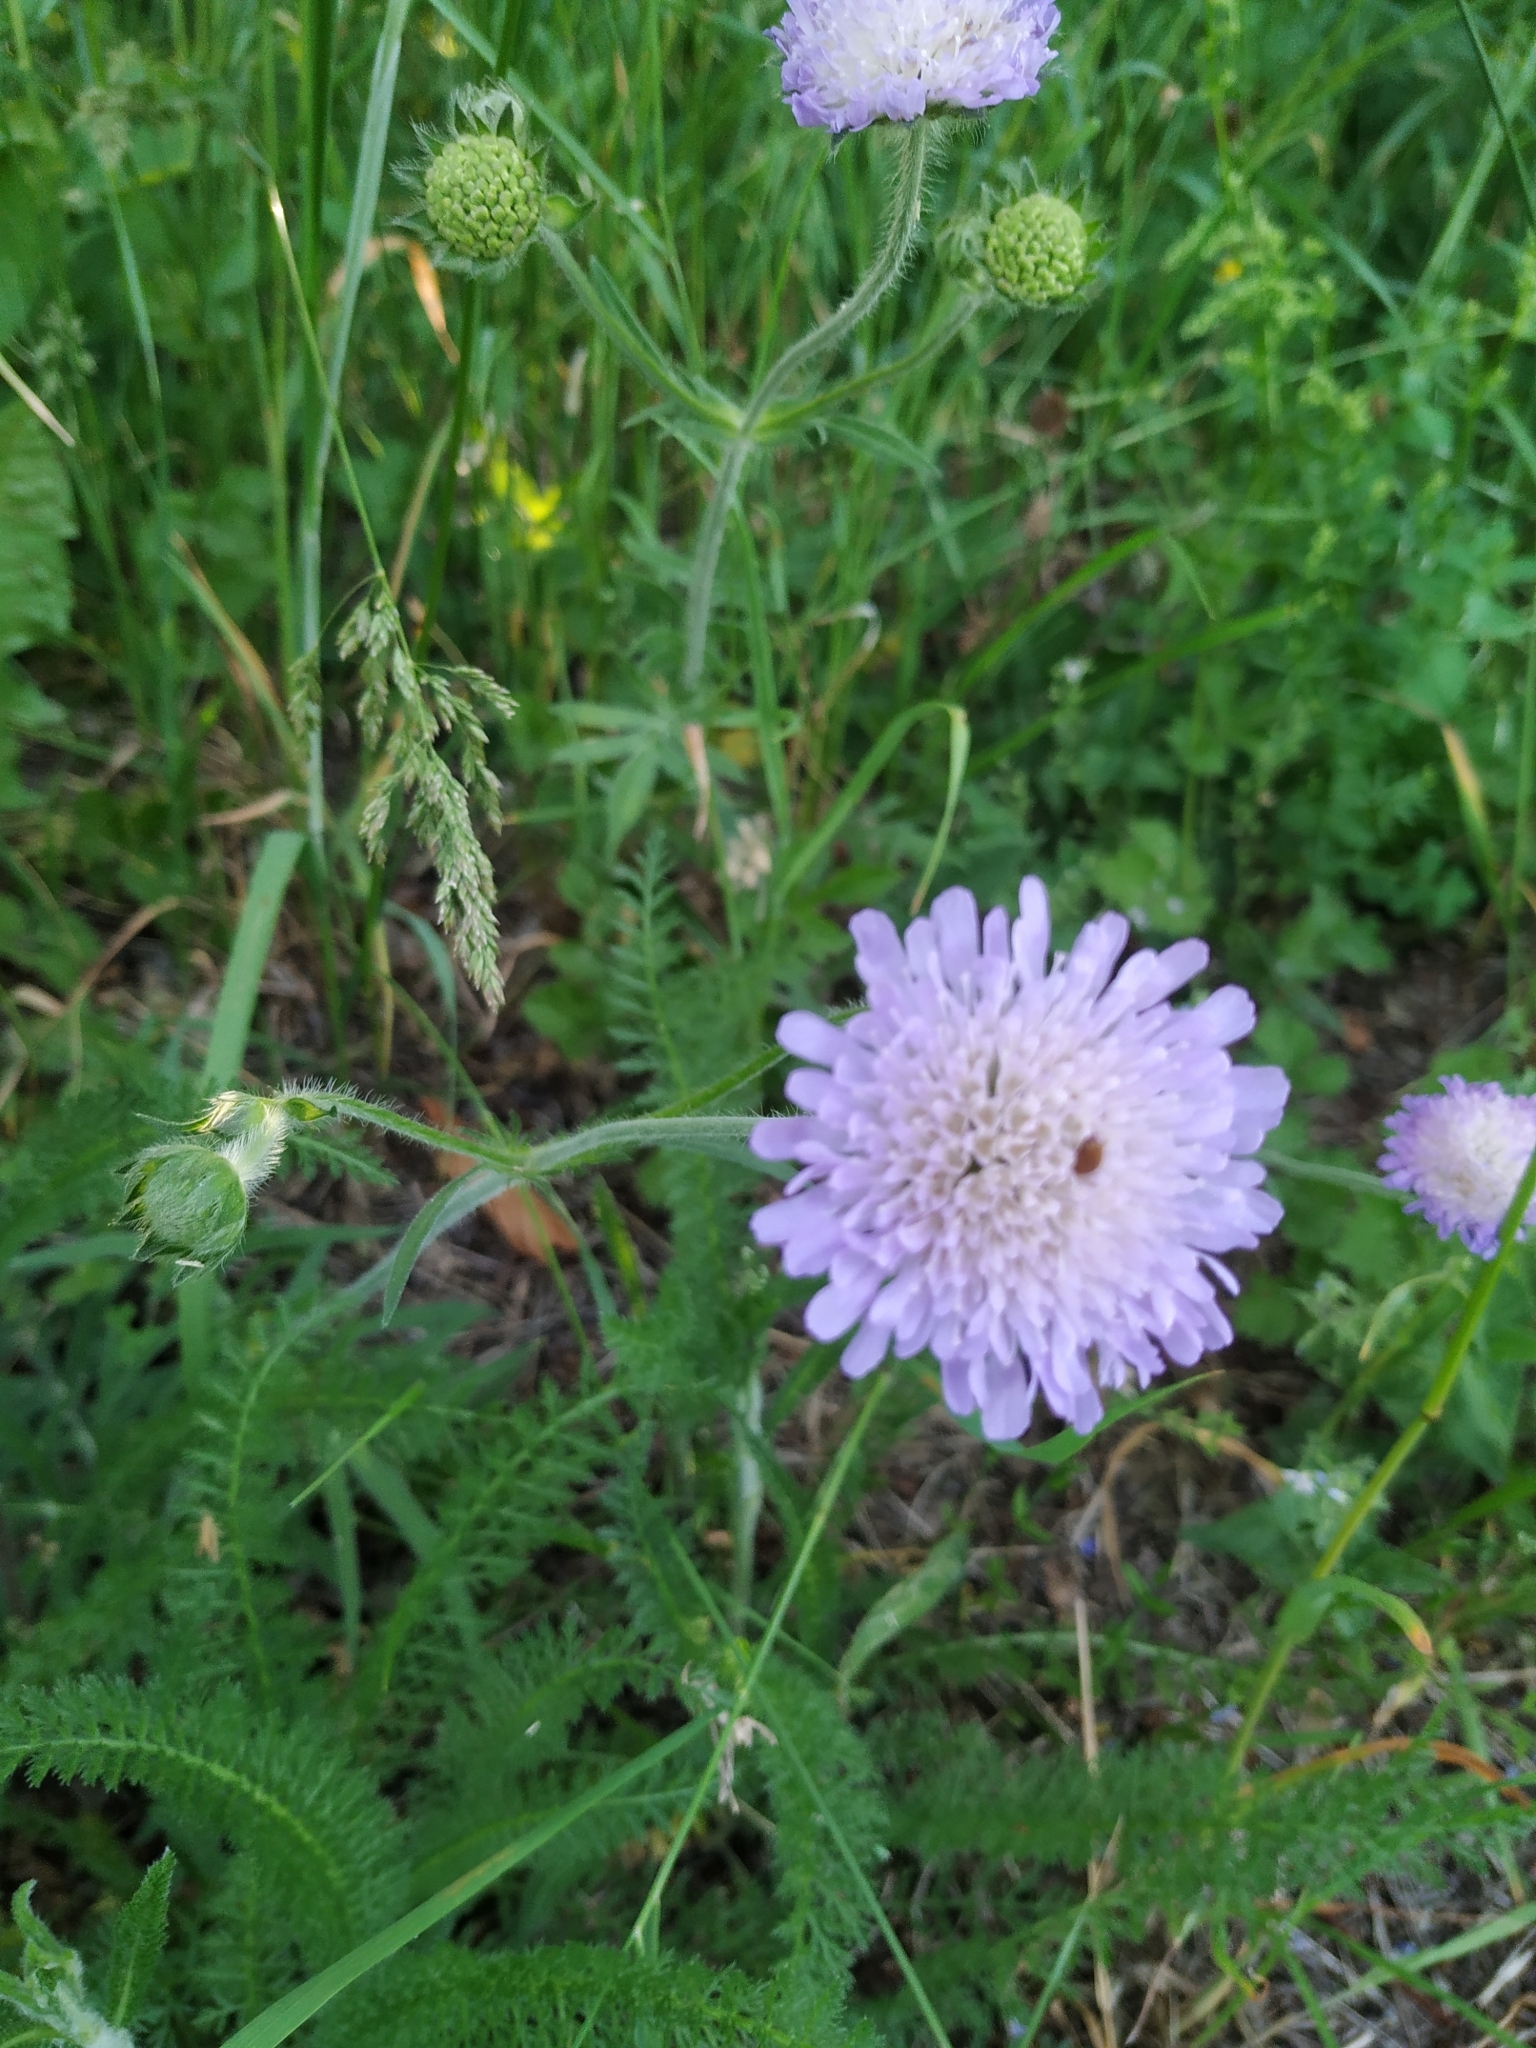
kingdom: Plantae
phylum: Tracheophyta
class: Magnoliopsida
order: Dipsacales
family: Caprifoliaceae
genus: Knautia
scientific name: Knautia arvensis
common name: Field scabiosa
